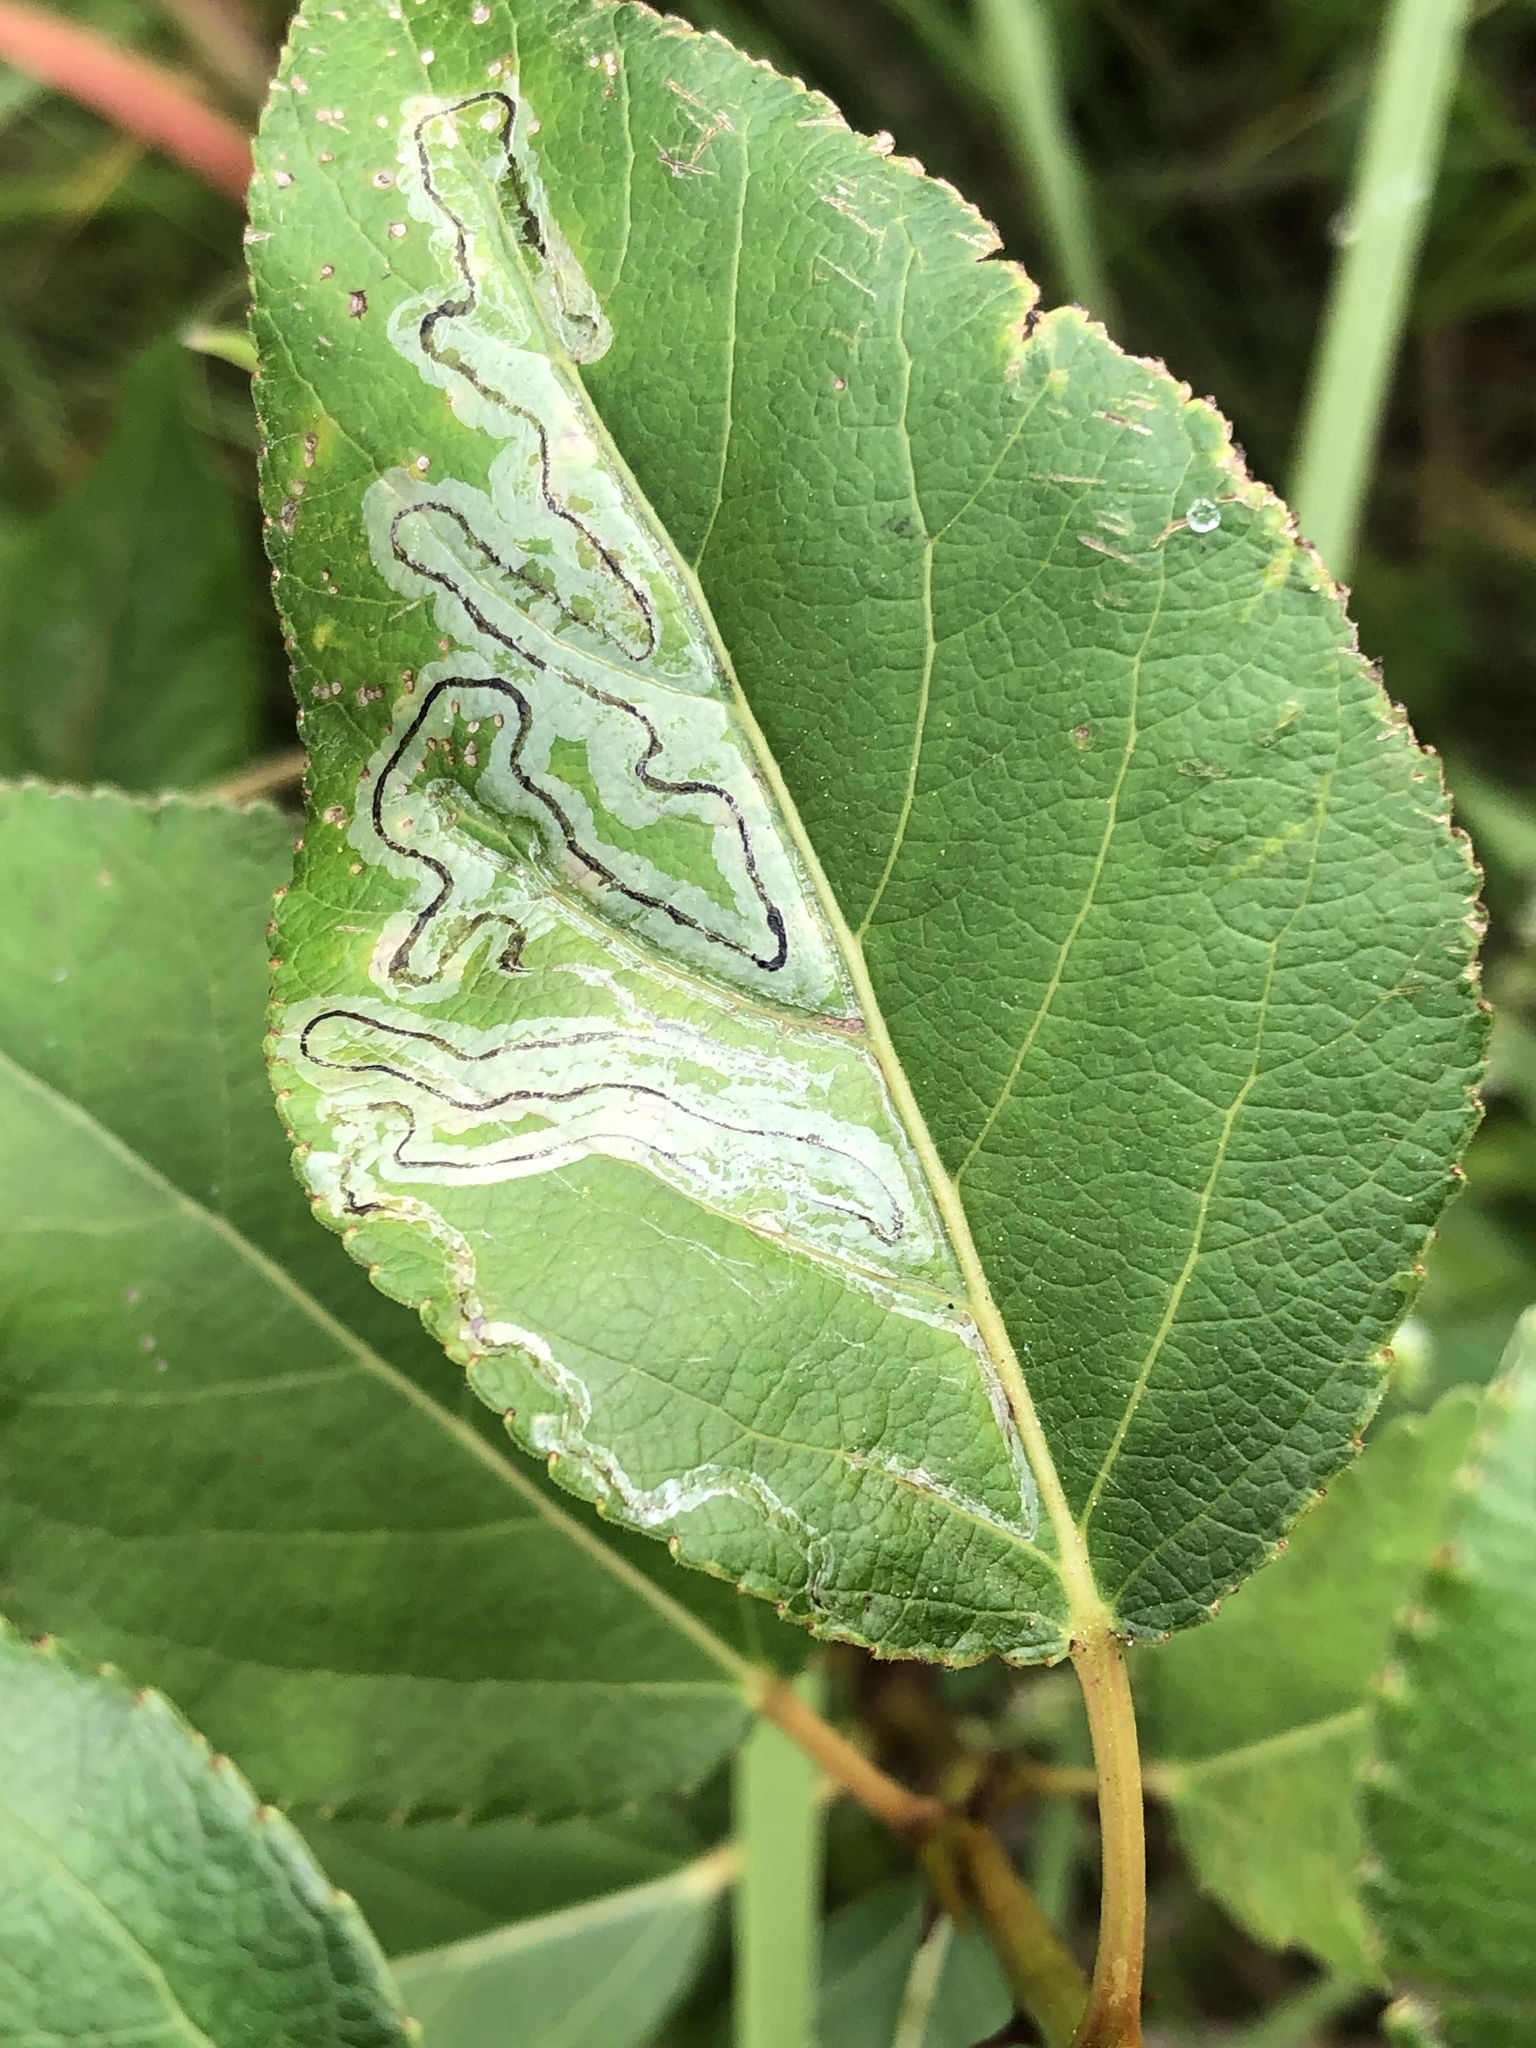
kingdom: Animalia
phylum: Arthropoda
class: Insecta
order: Lepidoptera
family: Gracillariidae
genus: Phyllocnistis
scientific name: Phyllocnistis populiella
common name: Aspen serpentine leafminer moth
